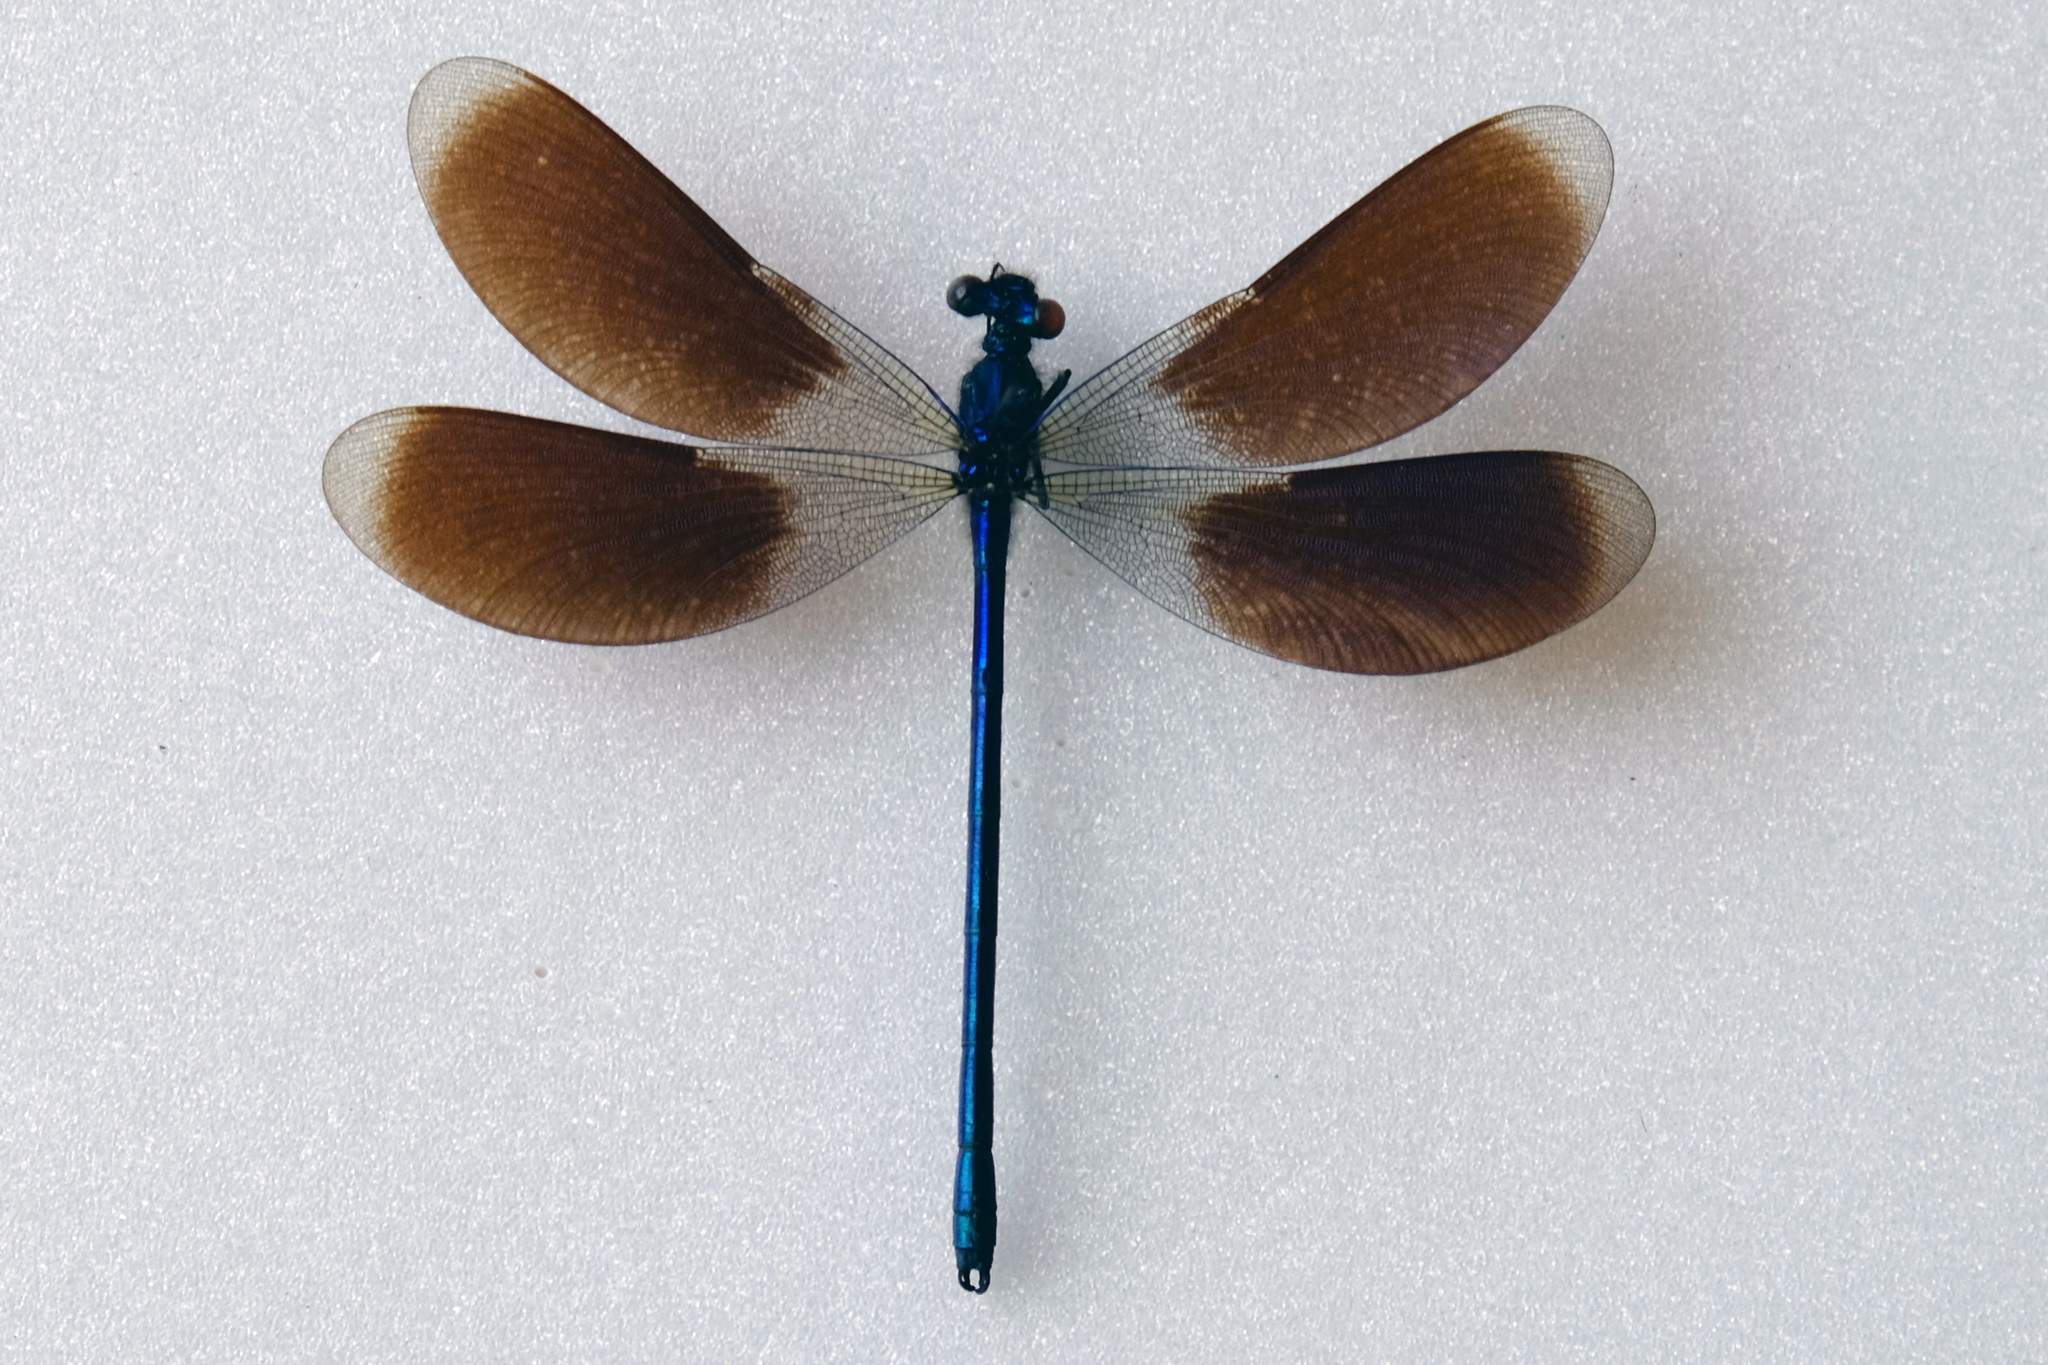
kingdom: Animalia
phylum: Arthropoda
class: Insecta
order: Odonata
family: Calopterygidae
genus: Calopteryx
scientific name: Calopteryx splendens
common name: Banded demoiselle
